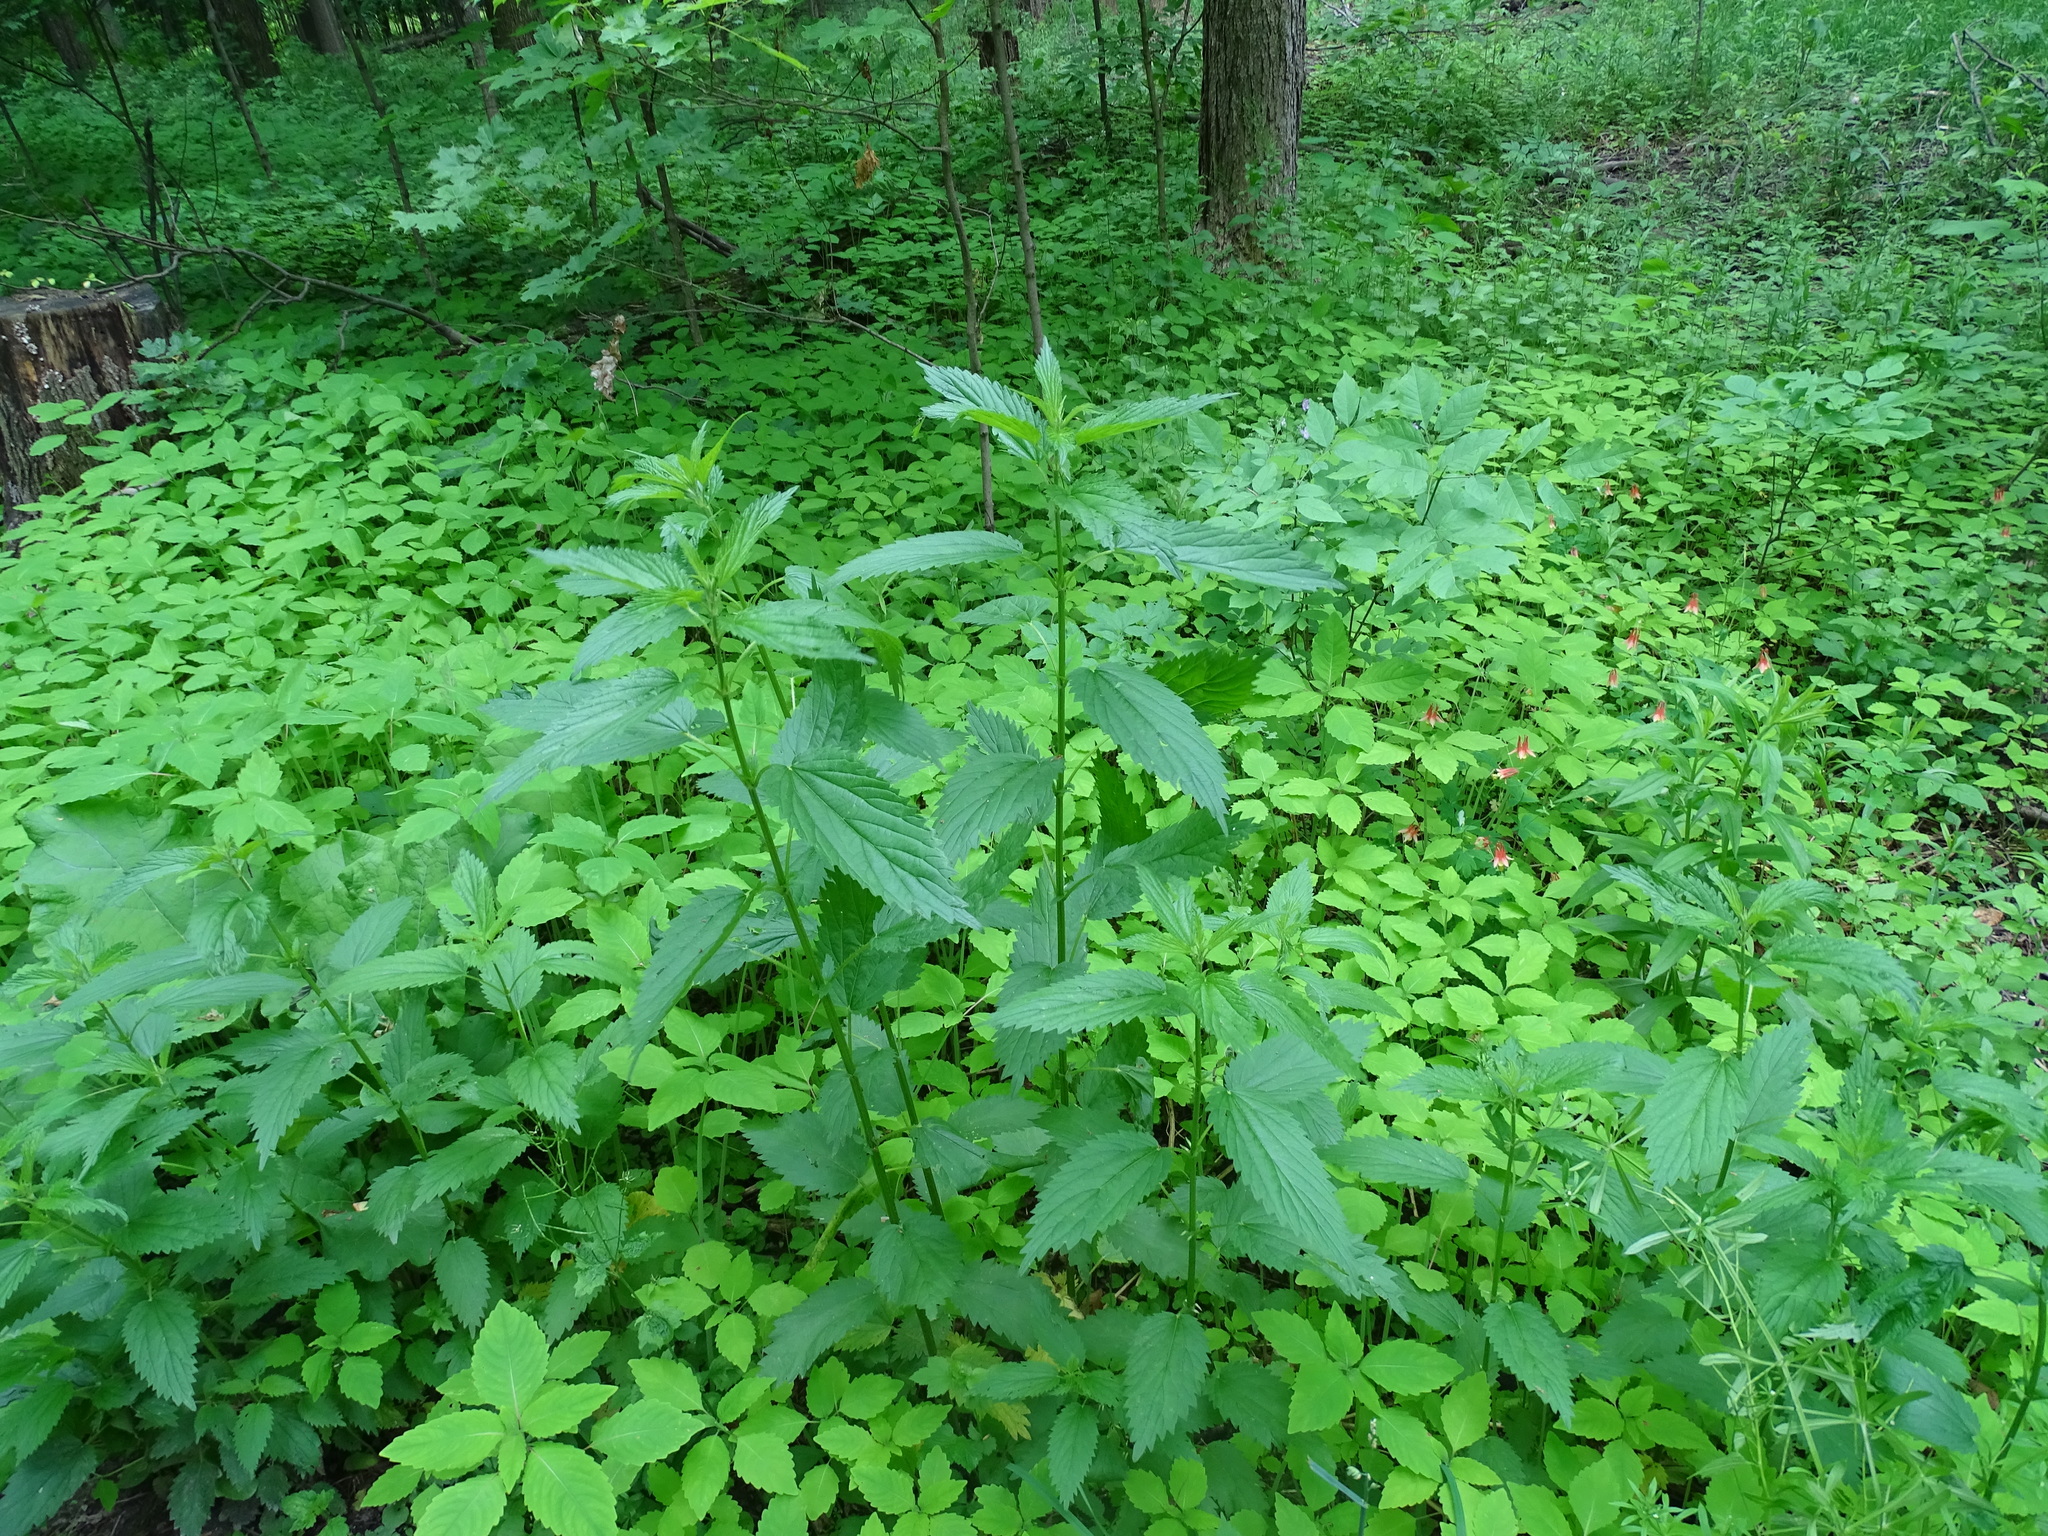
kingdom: Plantae
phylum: Tracheophyta
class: Magnoliopsida
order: Rosales
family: Urticaceae
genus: Urtica
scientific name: Urtica dioica
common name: Common nettle
